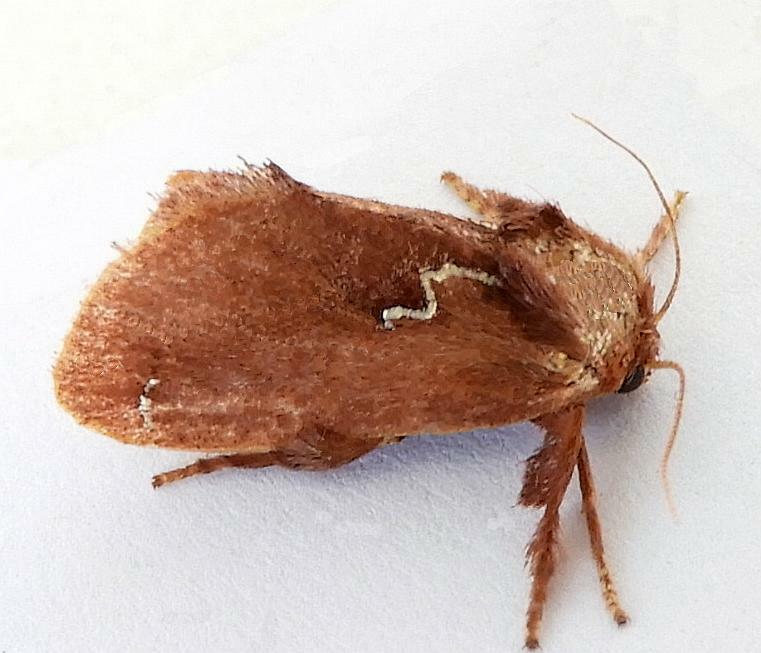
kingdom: Animalia
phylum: Arthropoda
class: Insecta
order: Lepidoptera
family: Limacodidae
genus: Euclea
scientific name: Euclea obliqua
